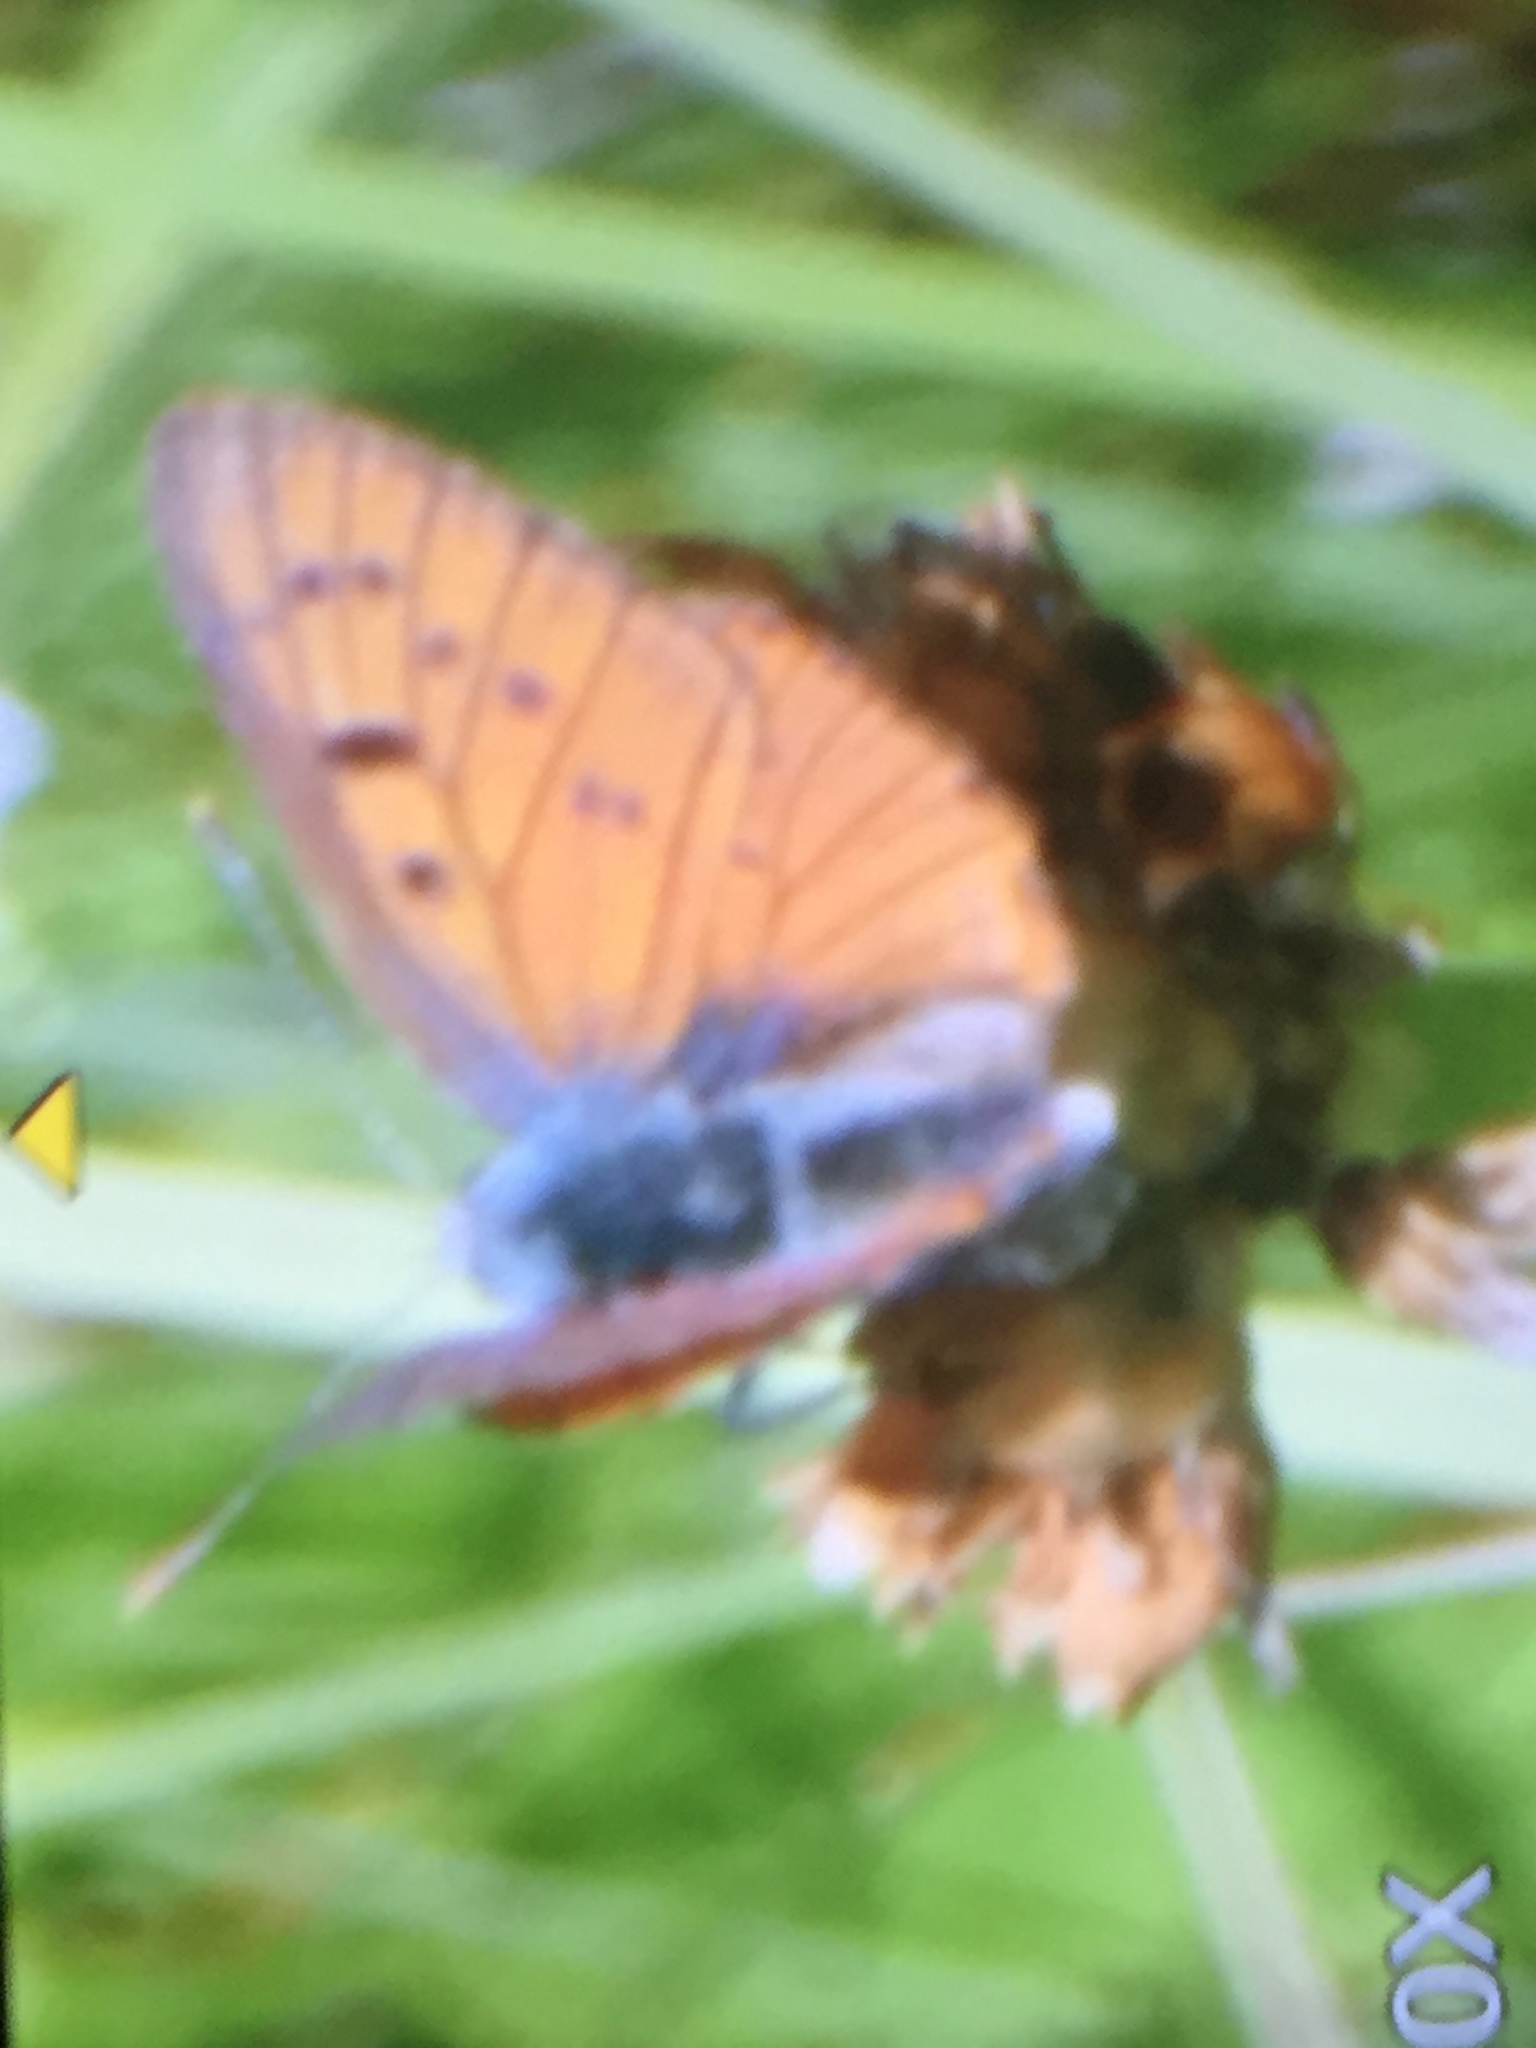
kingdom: Animalia
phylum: Arthropoda
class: Insecta
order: Lepidoptera
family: Lycaenidae
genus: Lycaena
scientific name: Lycaena alciphron
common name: Purple-shot copper
